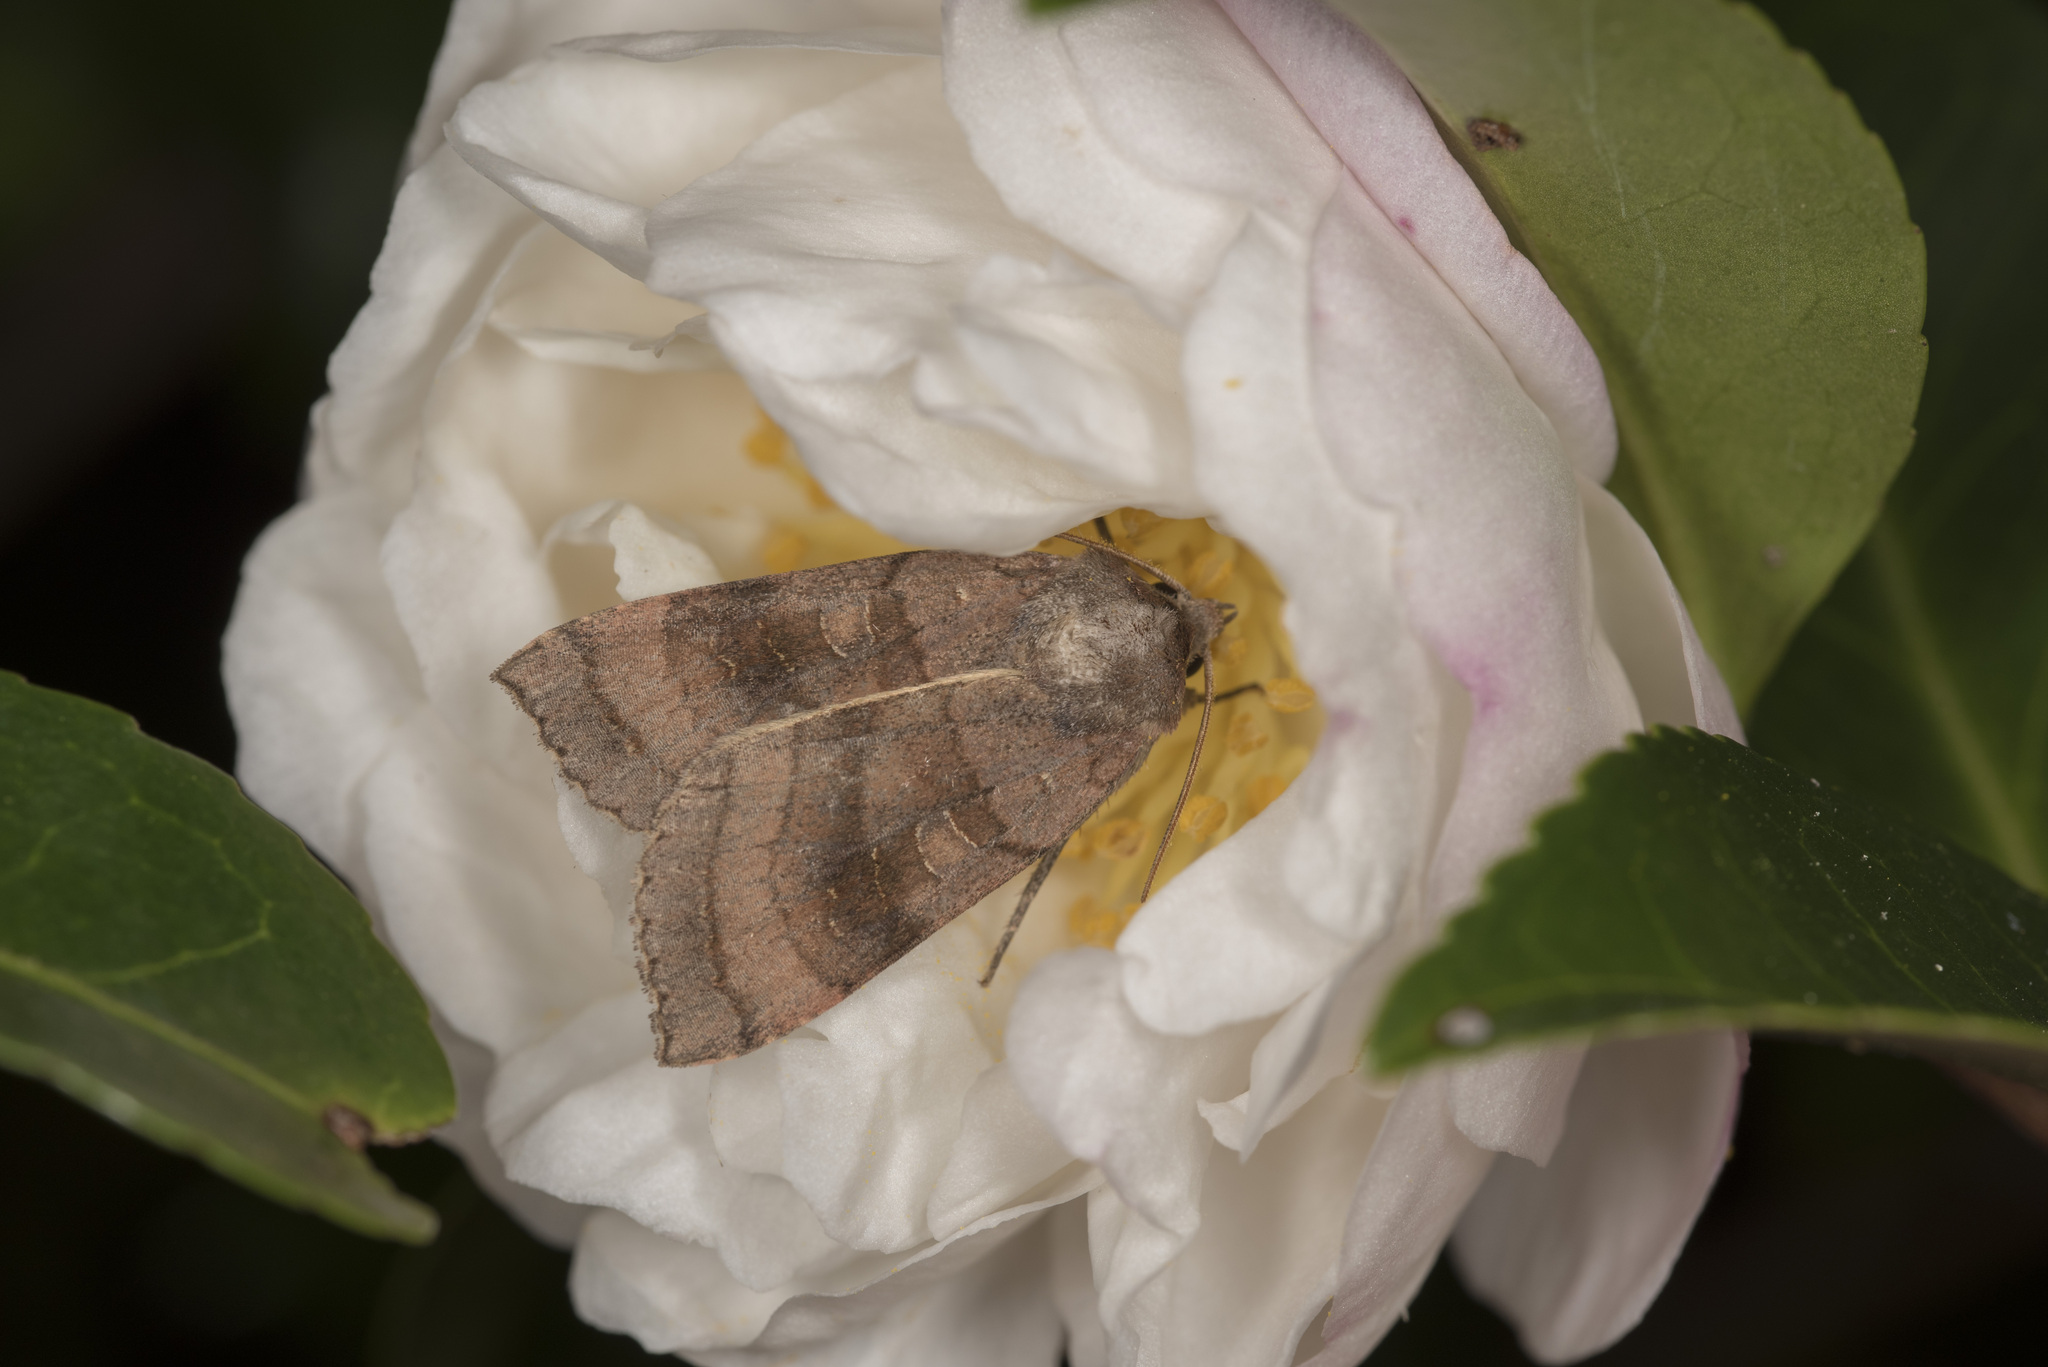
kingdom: Animalia
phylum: Arthropoda
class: Insecta
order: Lepidoptera
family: Noctuidae
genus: Xestia
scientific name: Xestia dilatata
